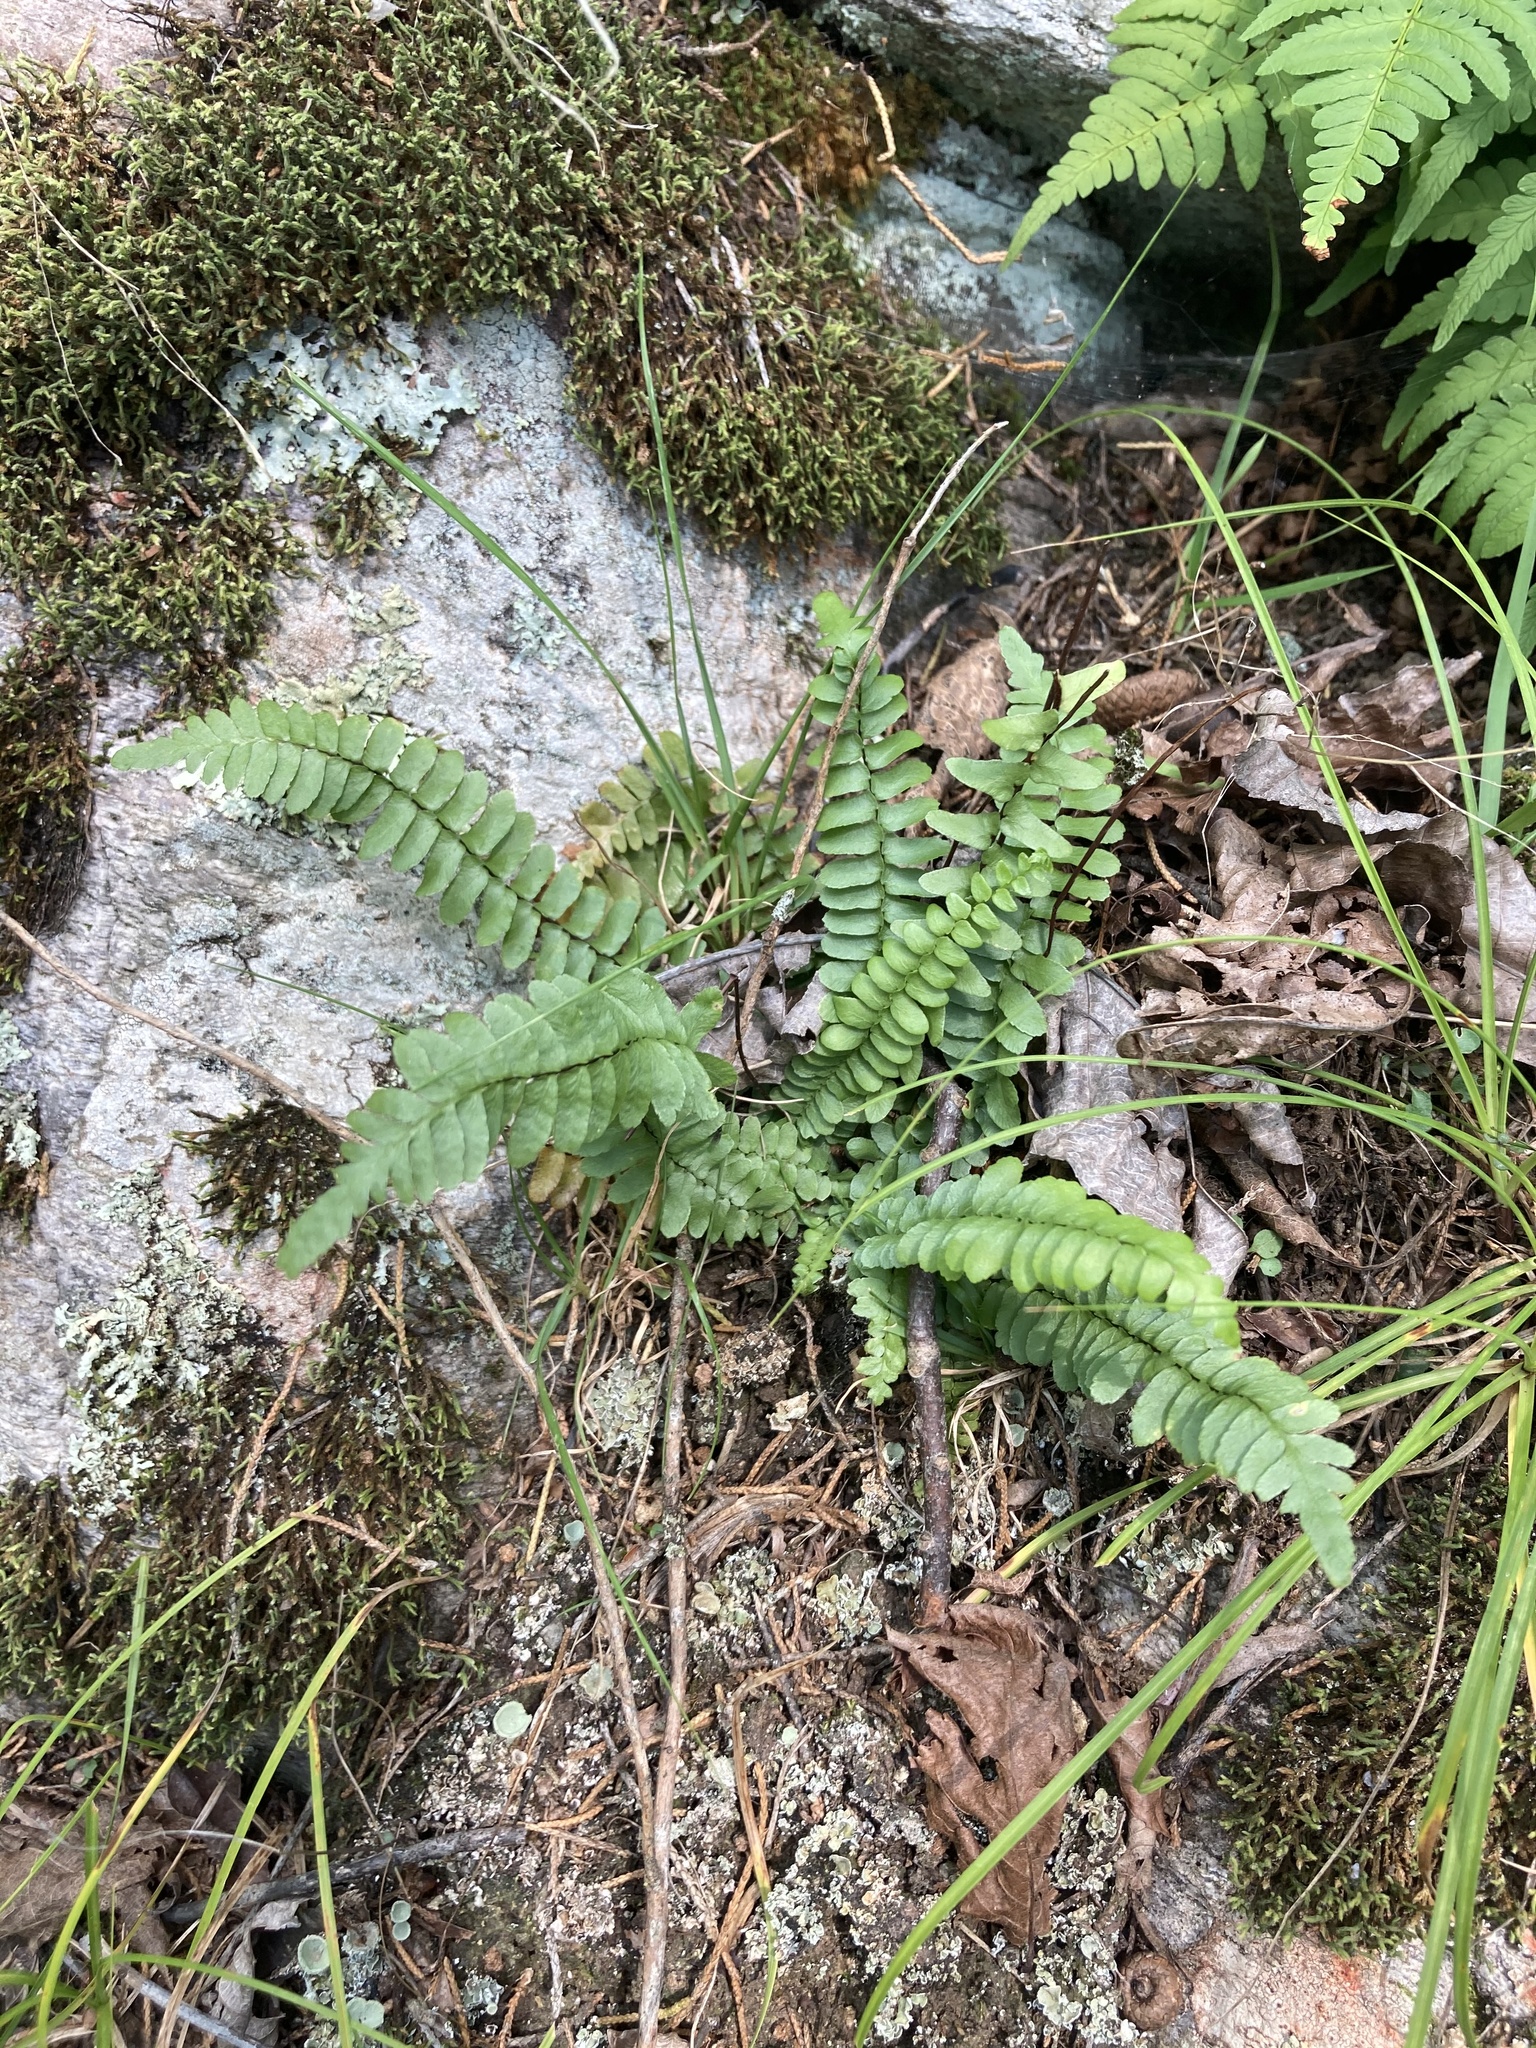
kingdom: Plantae
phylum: Tracheophyta
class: Polypodiopsida
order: Polypodiales
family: Aspleniaceae
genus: Asplenium
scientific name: Asplenium platyneuron
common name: Ebony spleenwort
